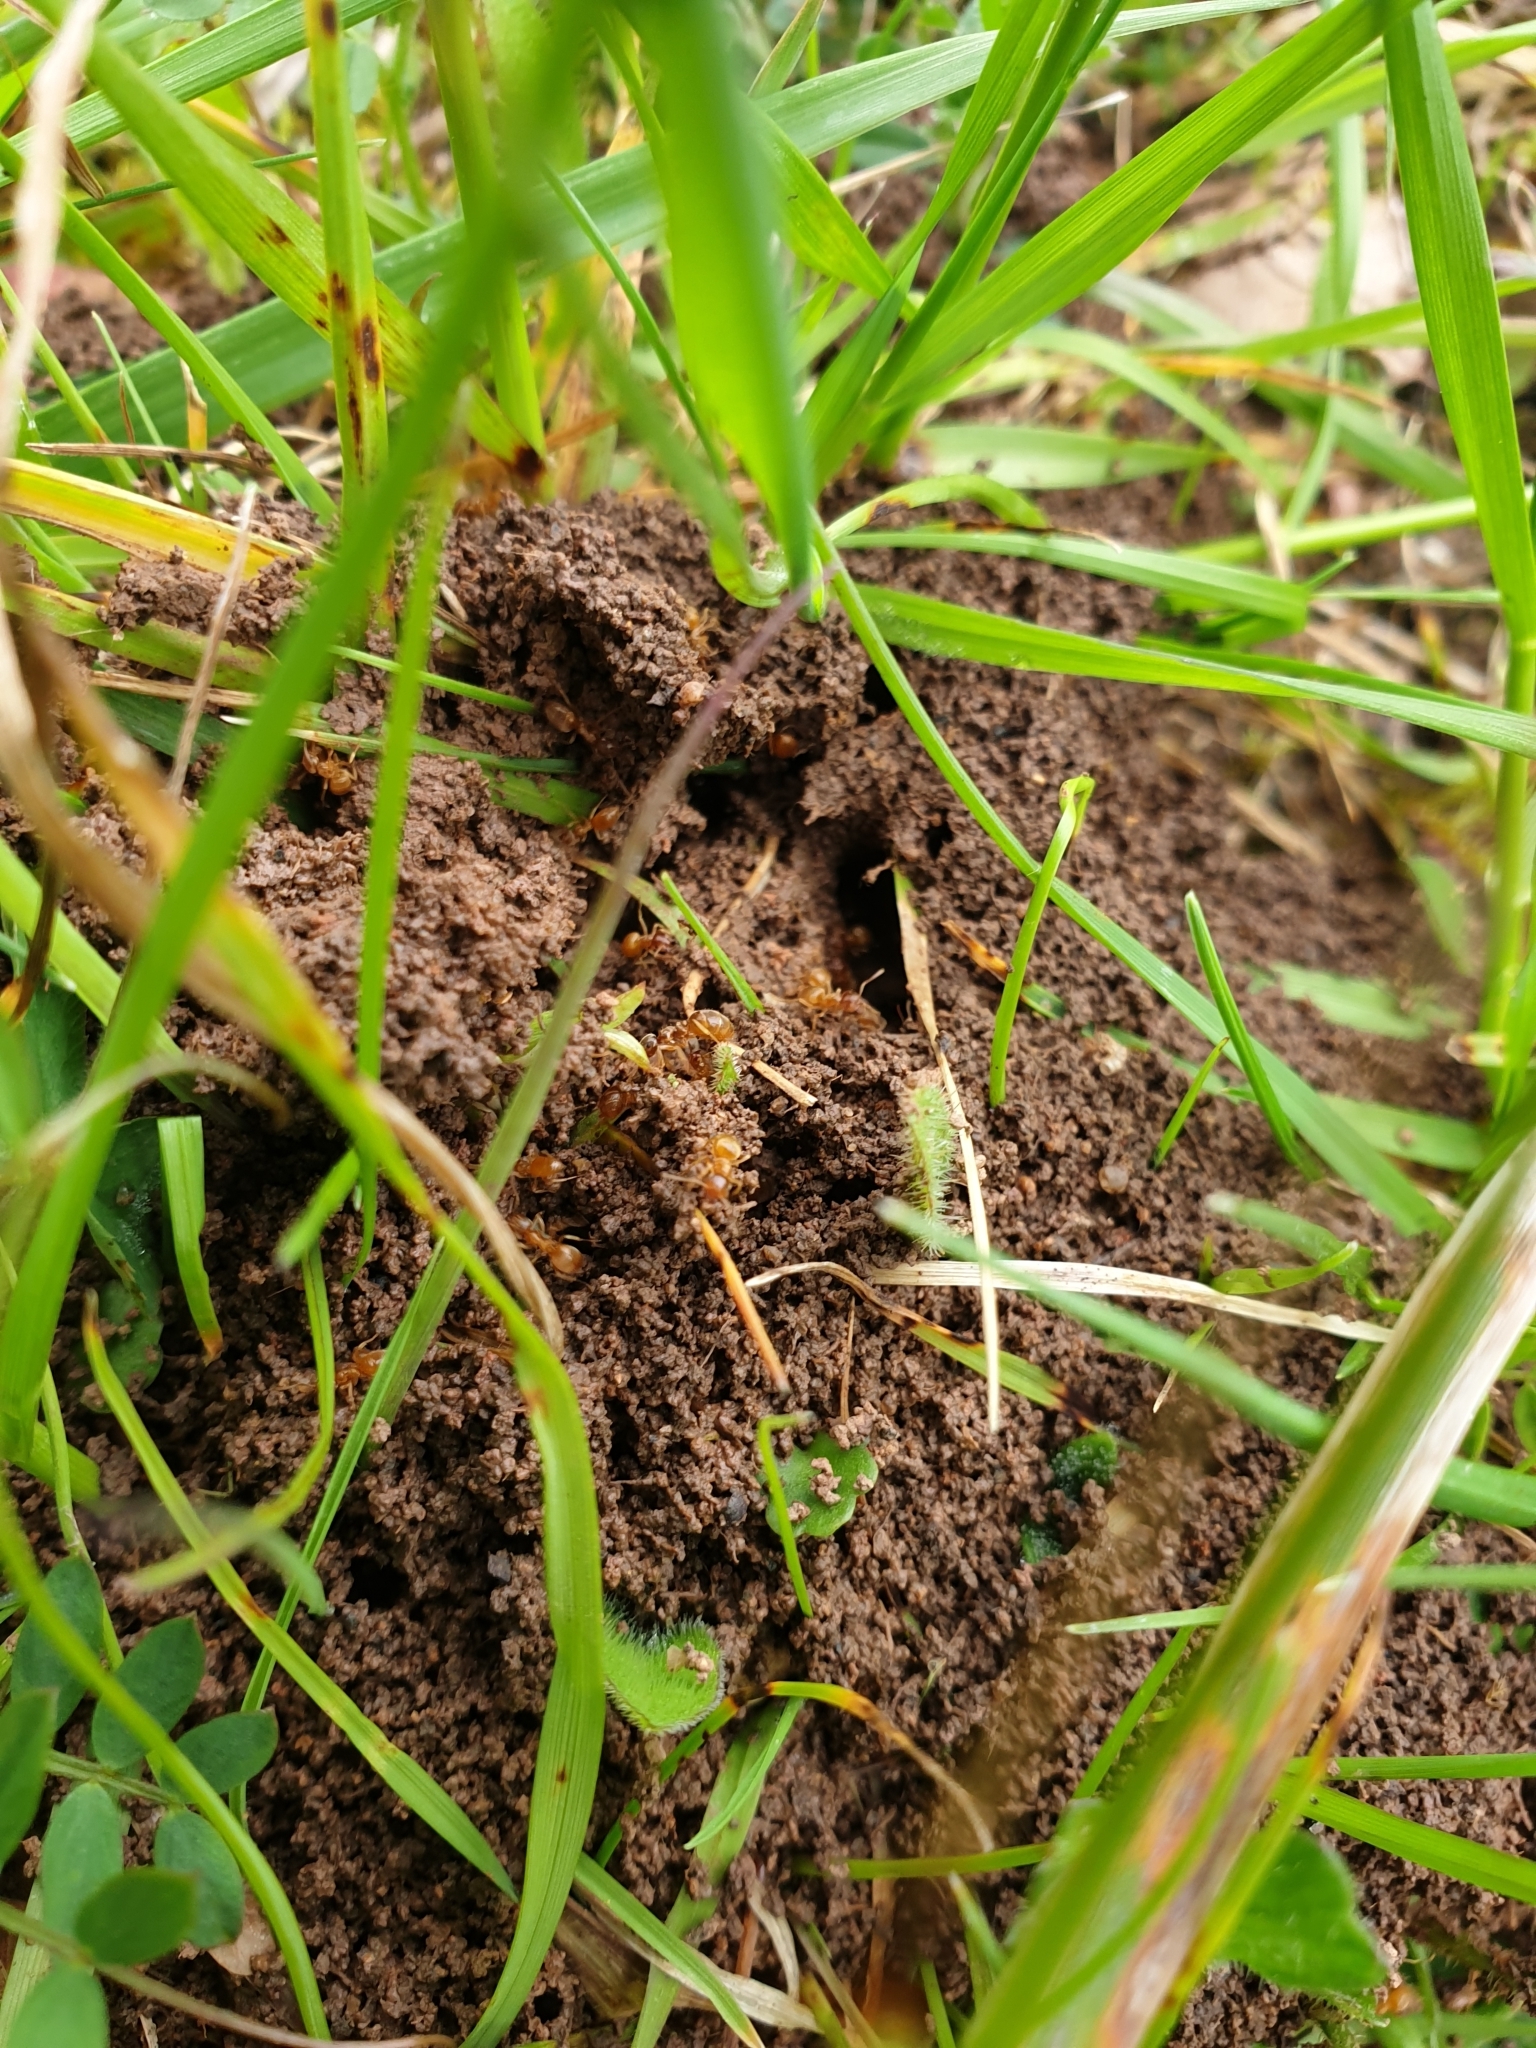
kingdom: Animalia
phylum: Arthropoda
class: Insecta
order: Hymenoptera
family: Formicidae
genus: Lasius
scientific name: Lasius flavus
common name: Blond field ant
